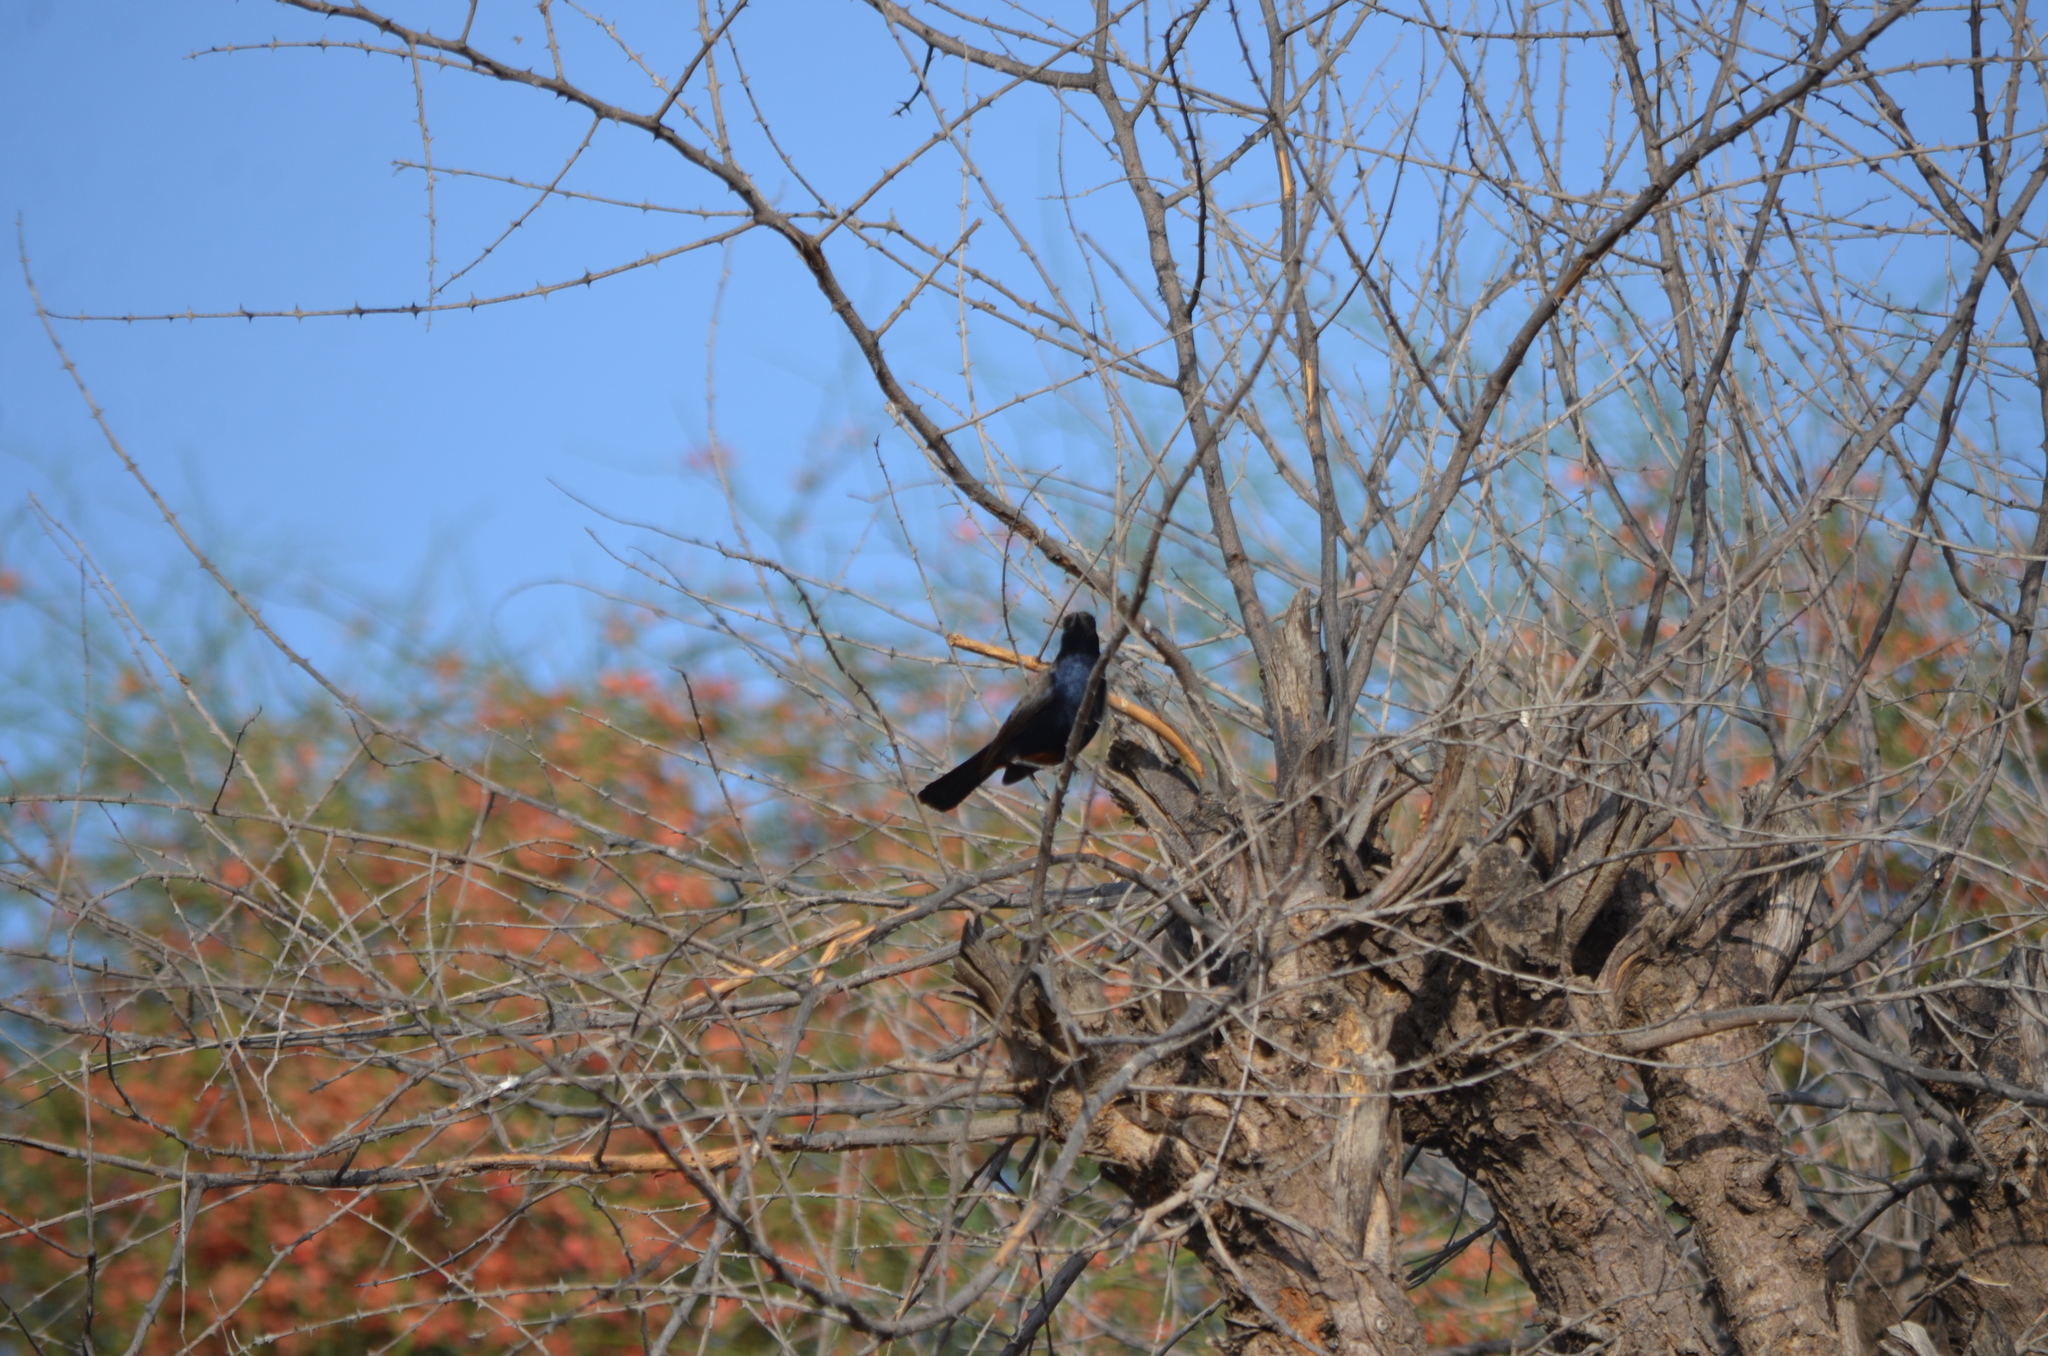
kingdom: Animalia
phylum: Chordata
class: Aves
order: Passeriformes
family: Muscicapidae
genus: Saxicoloides
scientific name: Saxicoloides fulicatus
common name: Indian robin
